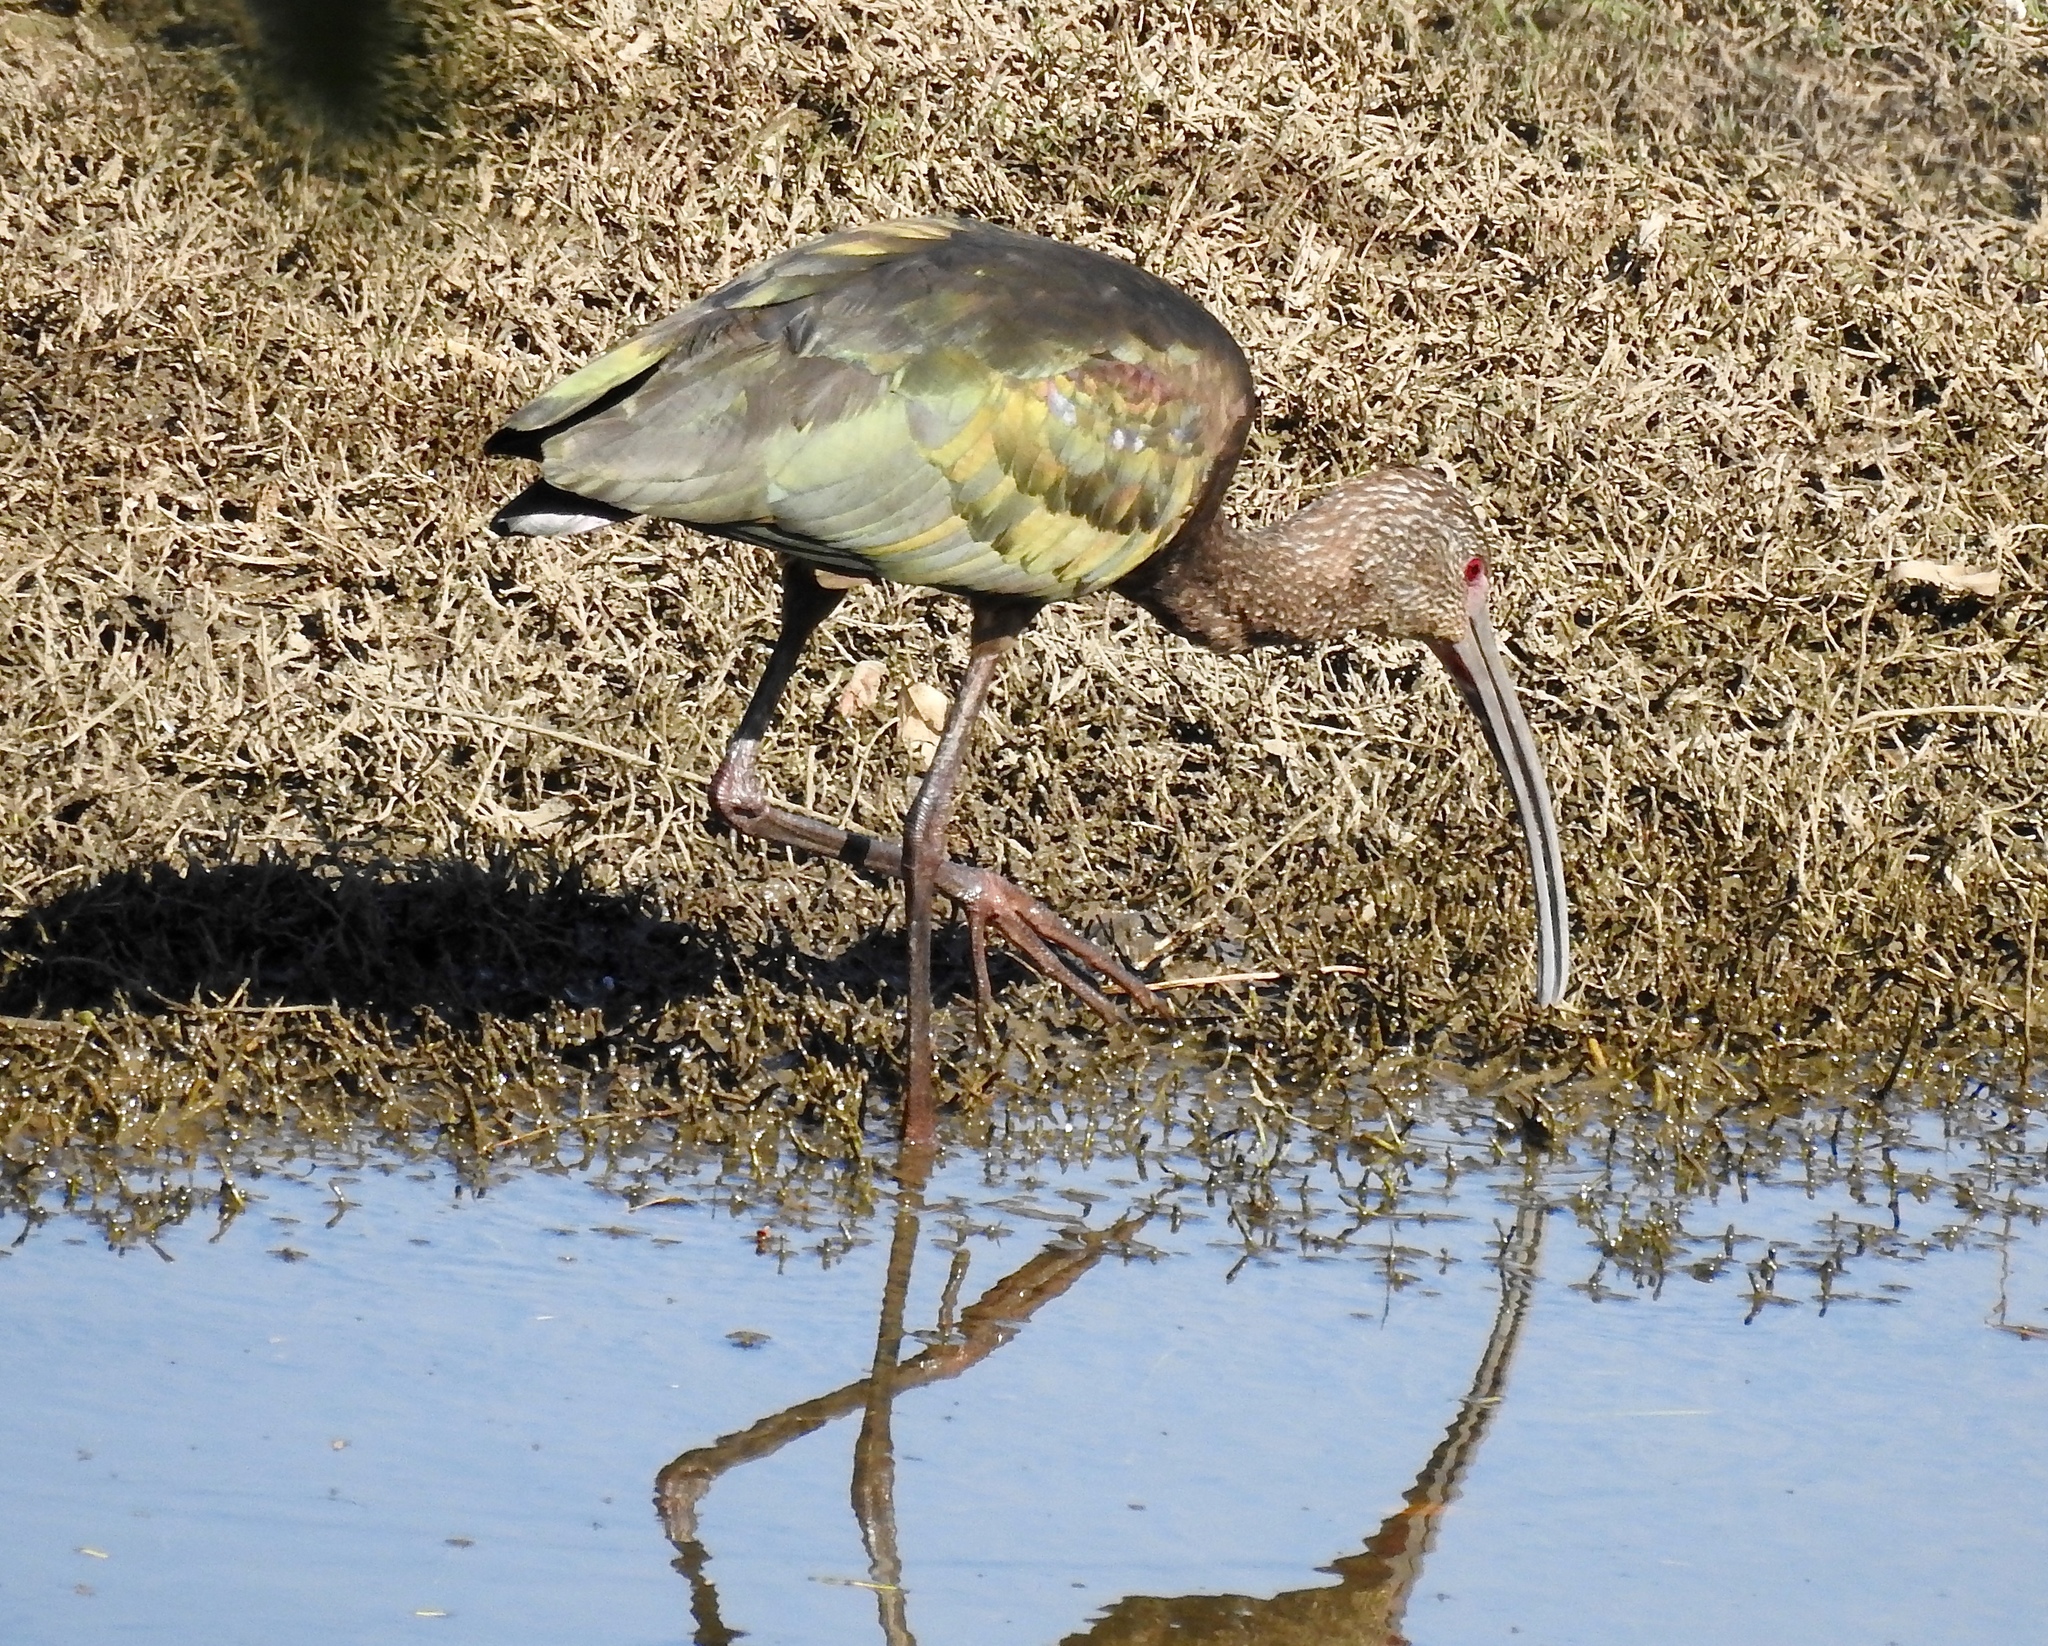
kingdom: Animalia
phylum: Chordata
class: Aves
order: Pelecaniformes
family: Threskiornithidae
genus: Plegadis
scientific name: Plegadis chihi
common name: White-faced ibis
